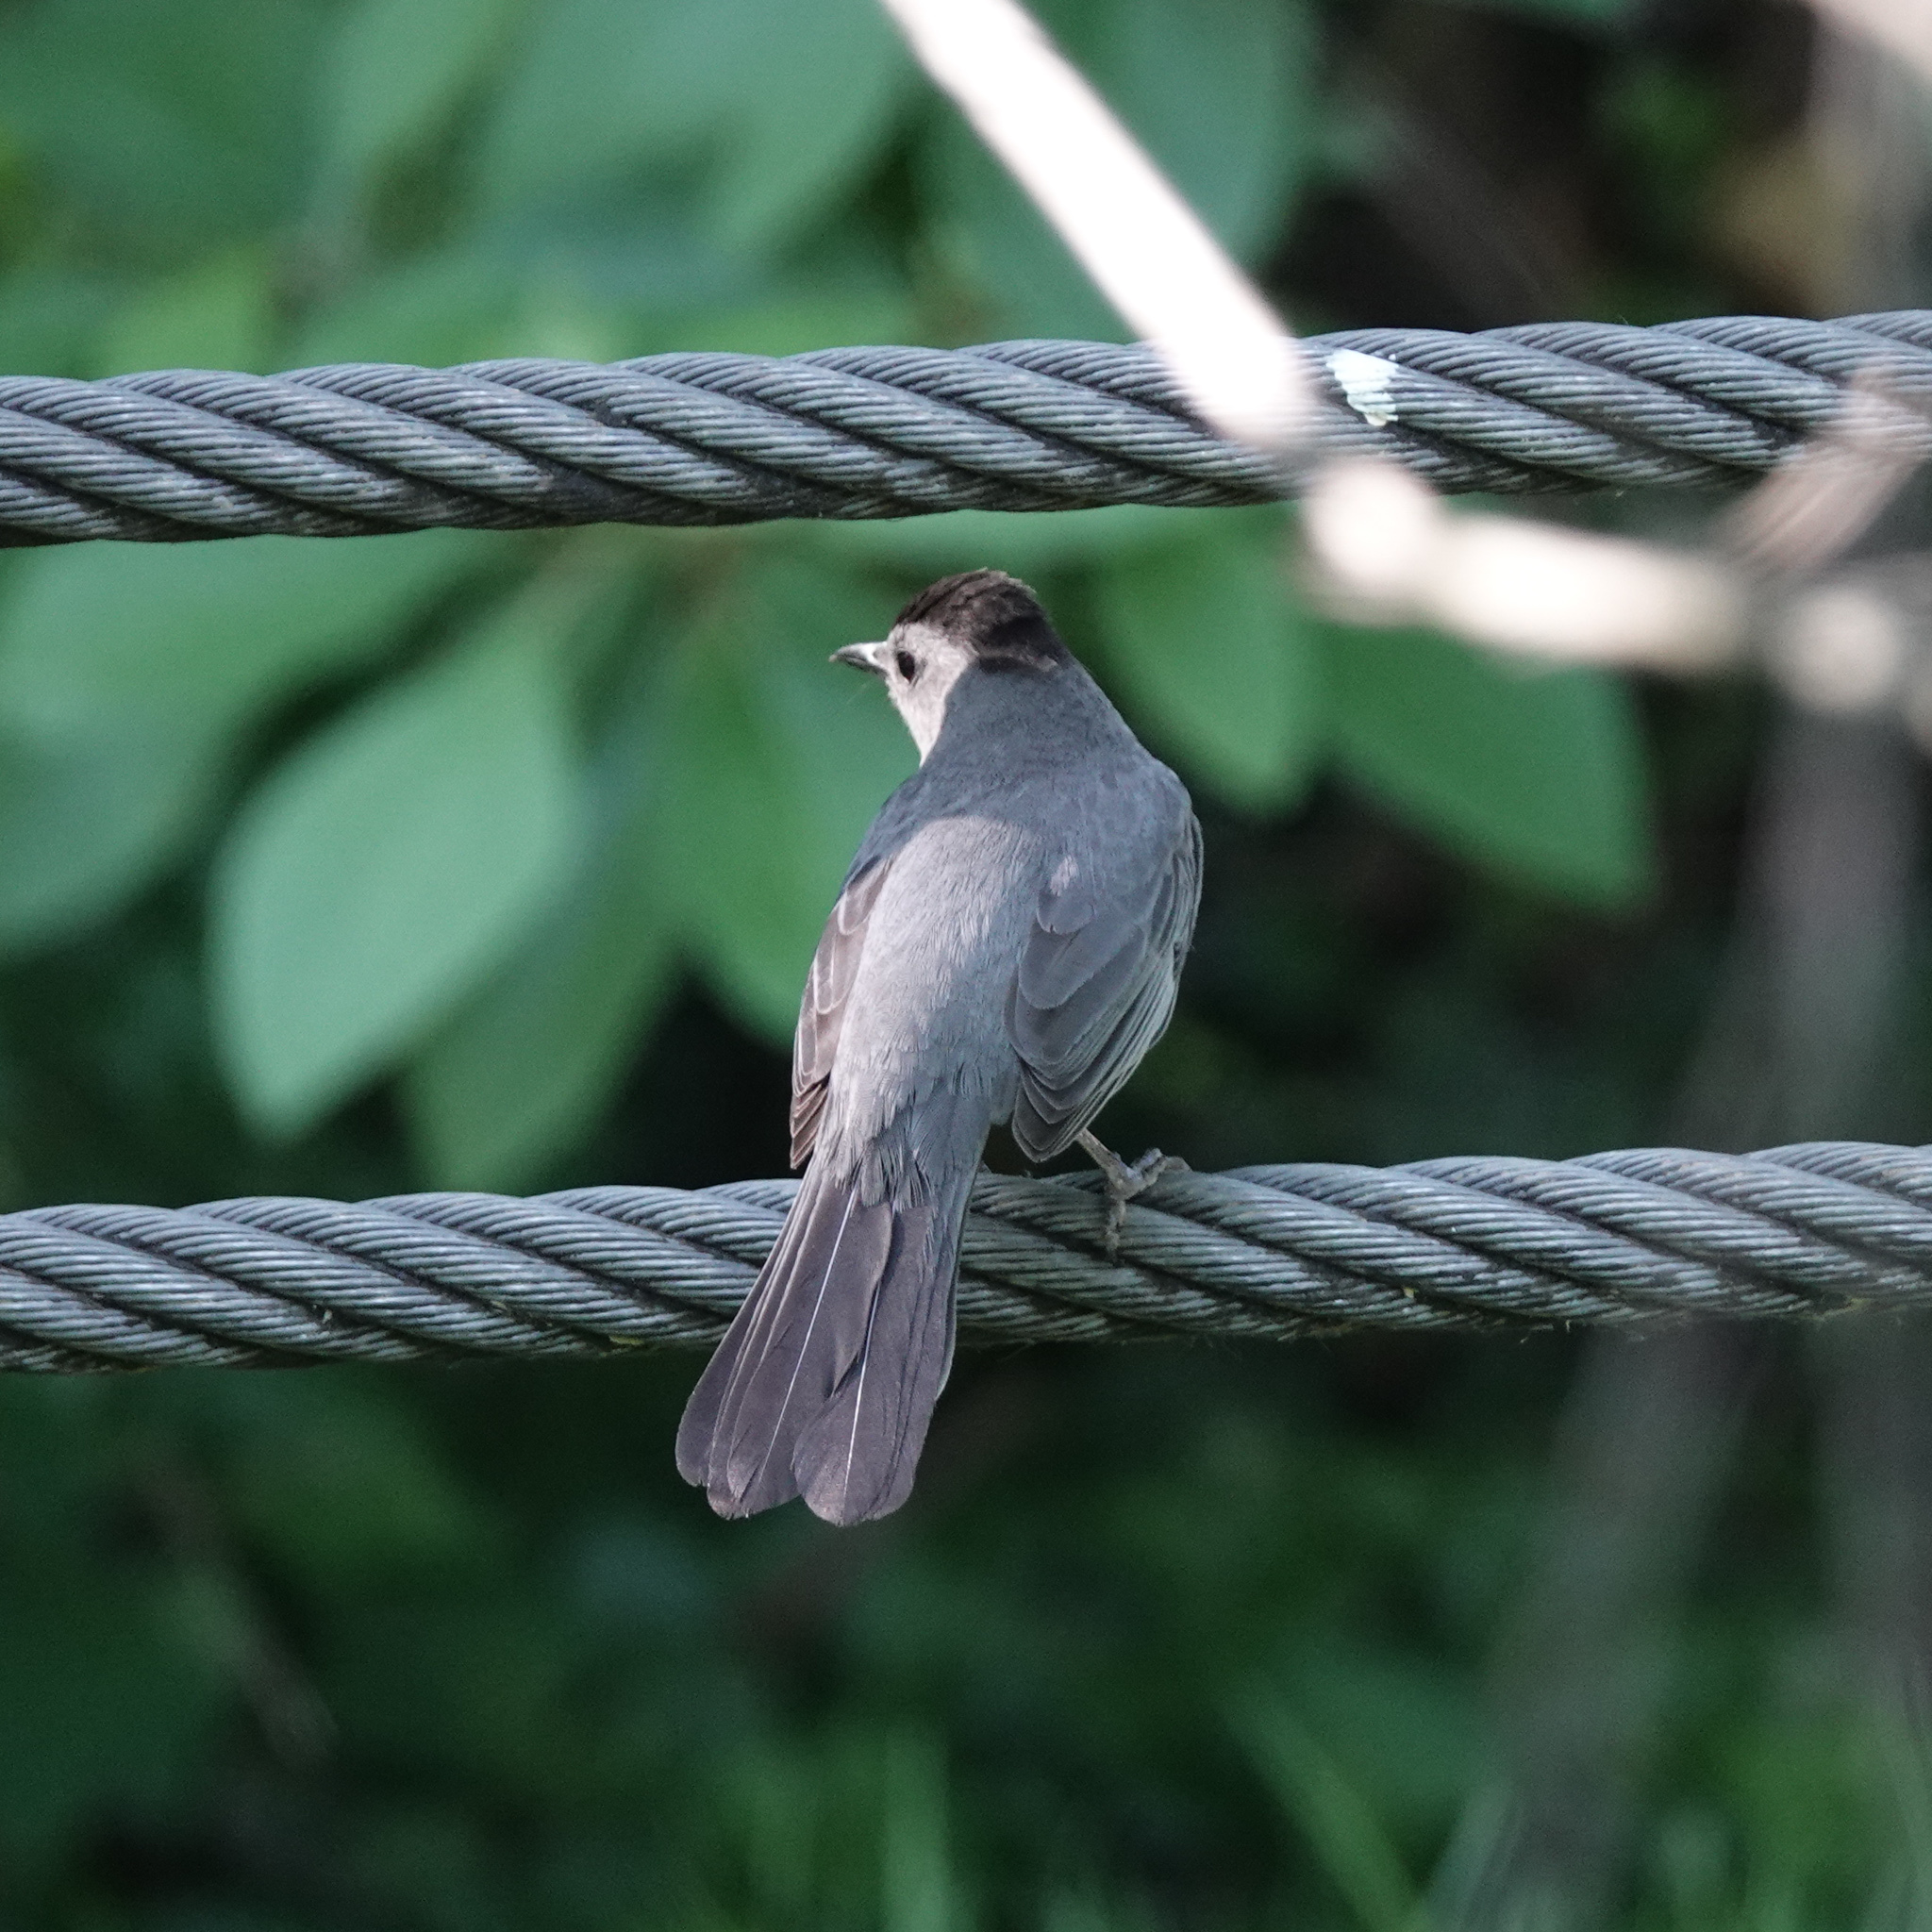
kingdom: Animalia
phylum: Chordata
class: Aves
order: Passeriformes
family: Mimidae
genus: Dumetella
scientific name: Dumetella carolinensis
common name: Gray catbird
